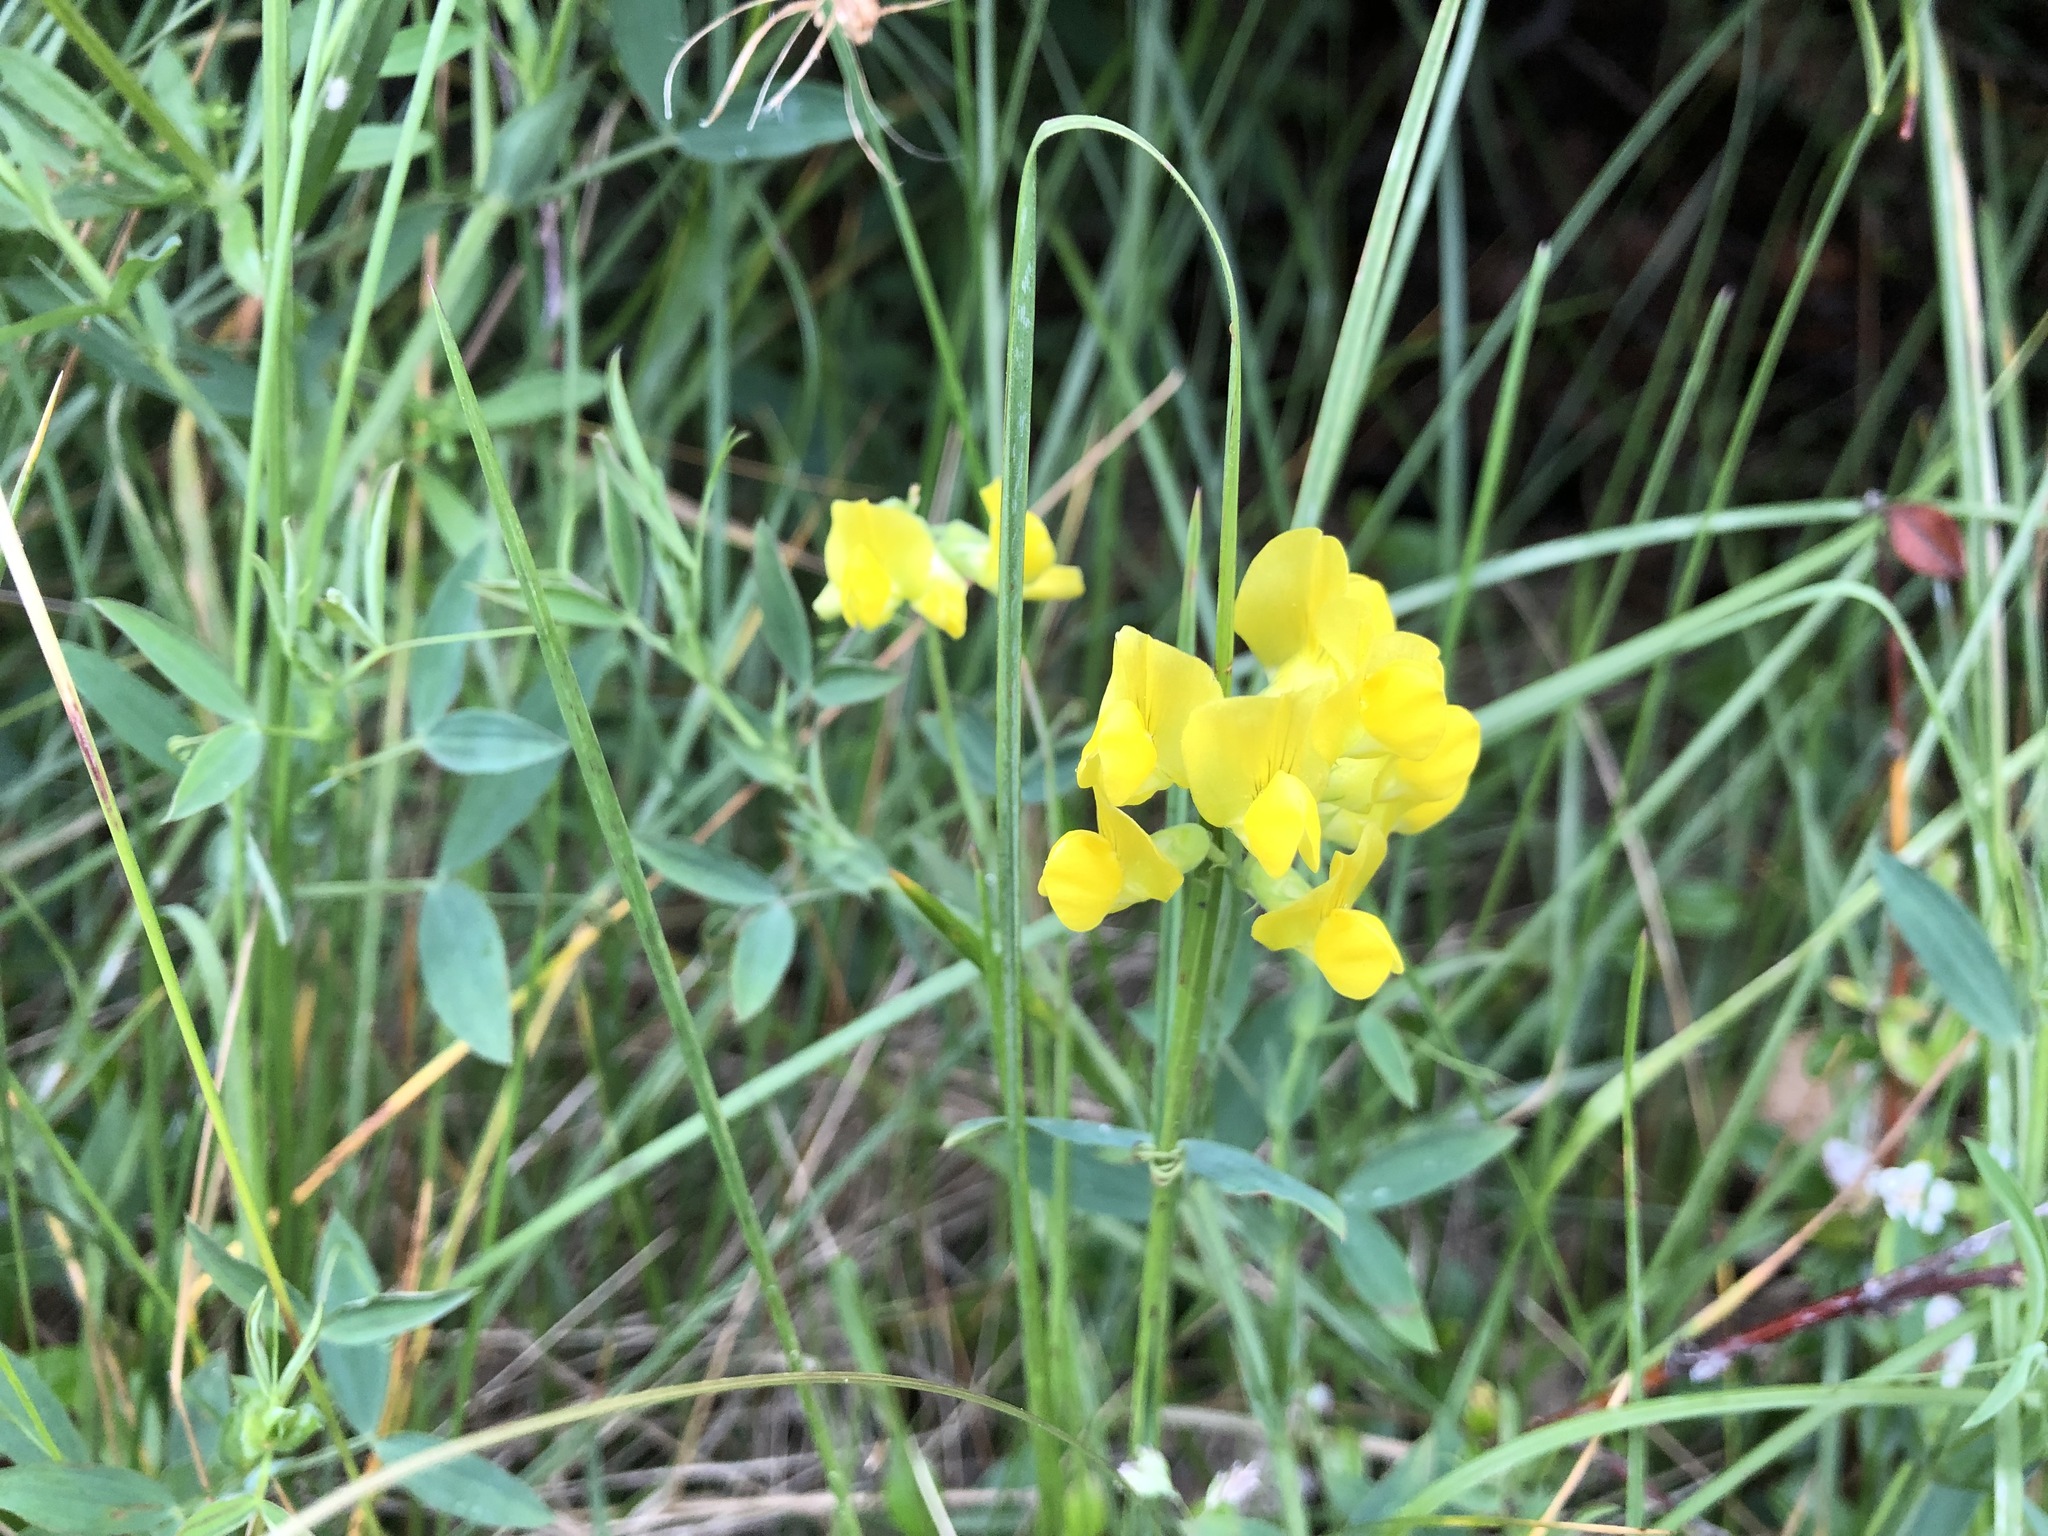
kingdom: Plantae
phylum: Tracheophyta
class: Magnoliopsida
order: Fabales
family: Fabaceae
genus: Lathyrus
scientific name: Lathyrus pratensis
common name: Meadow vetchling
